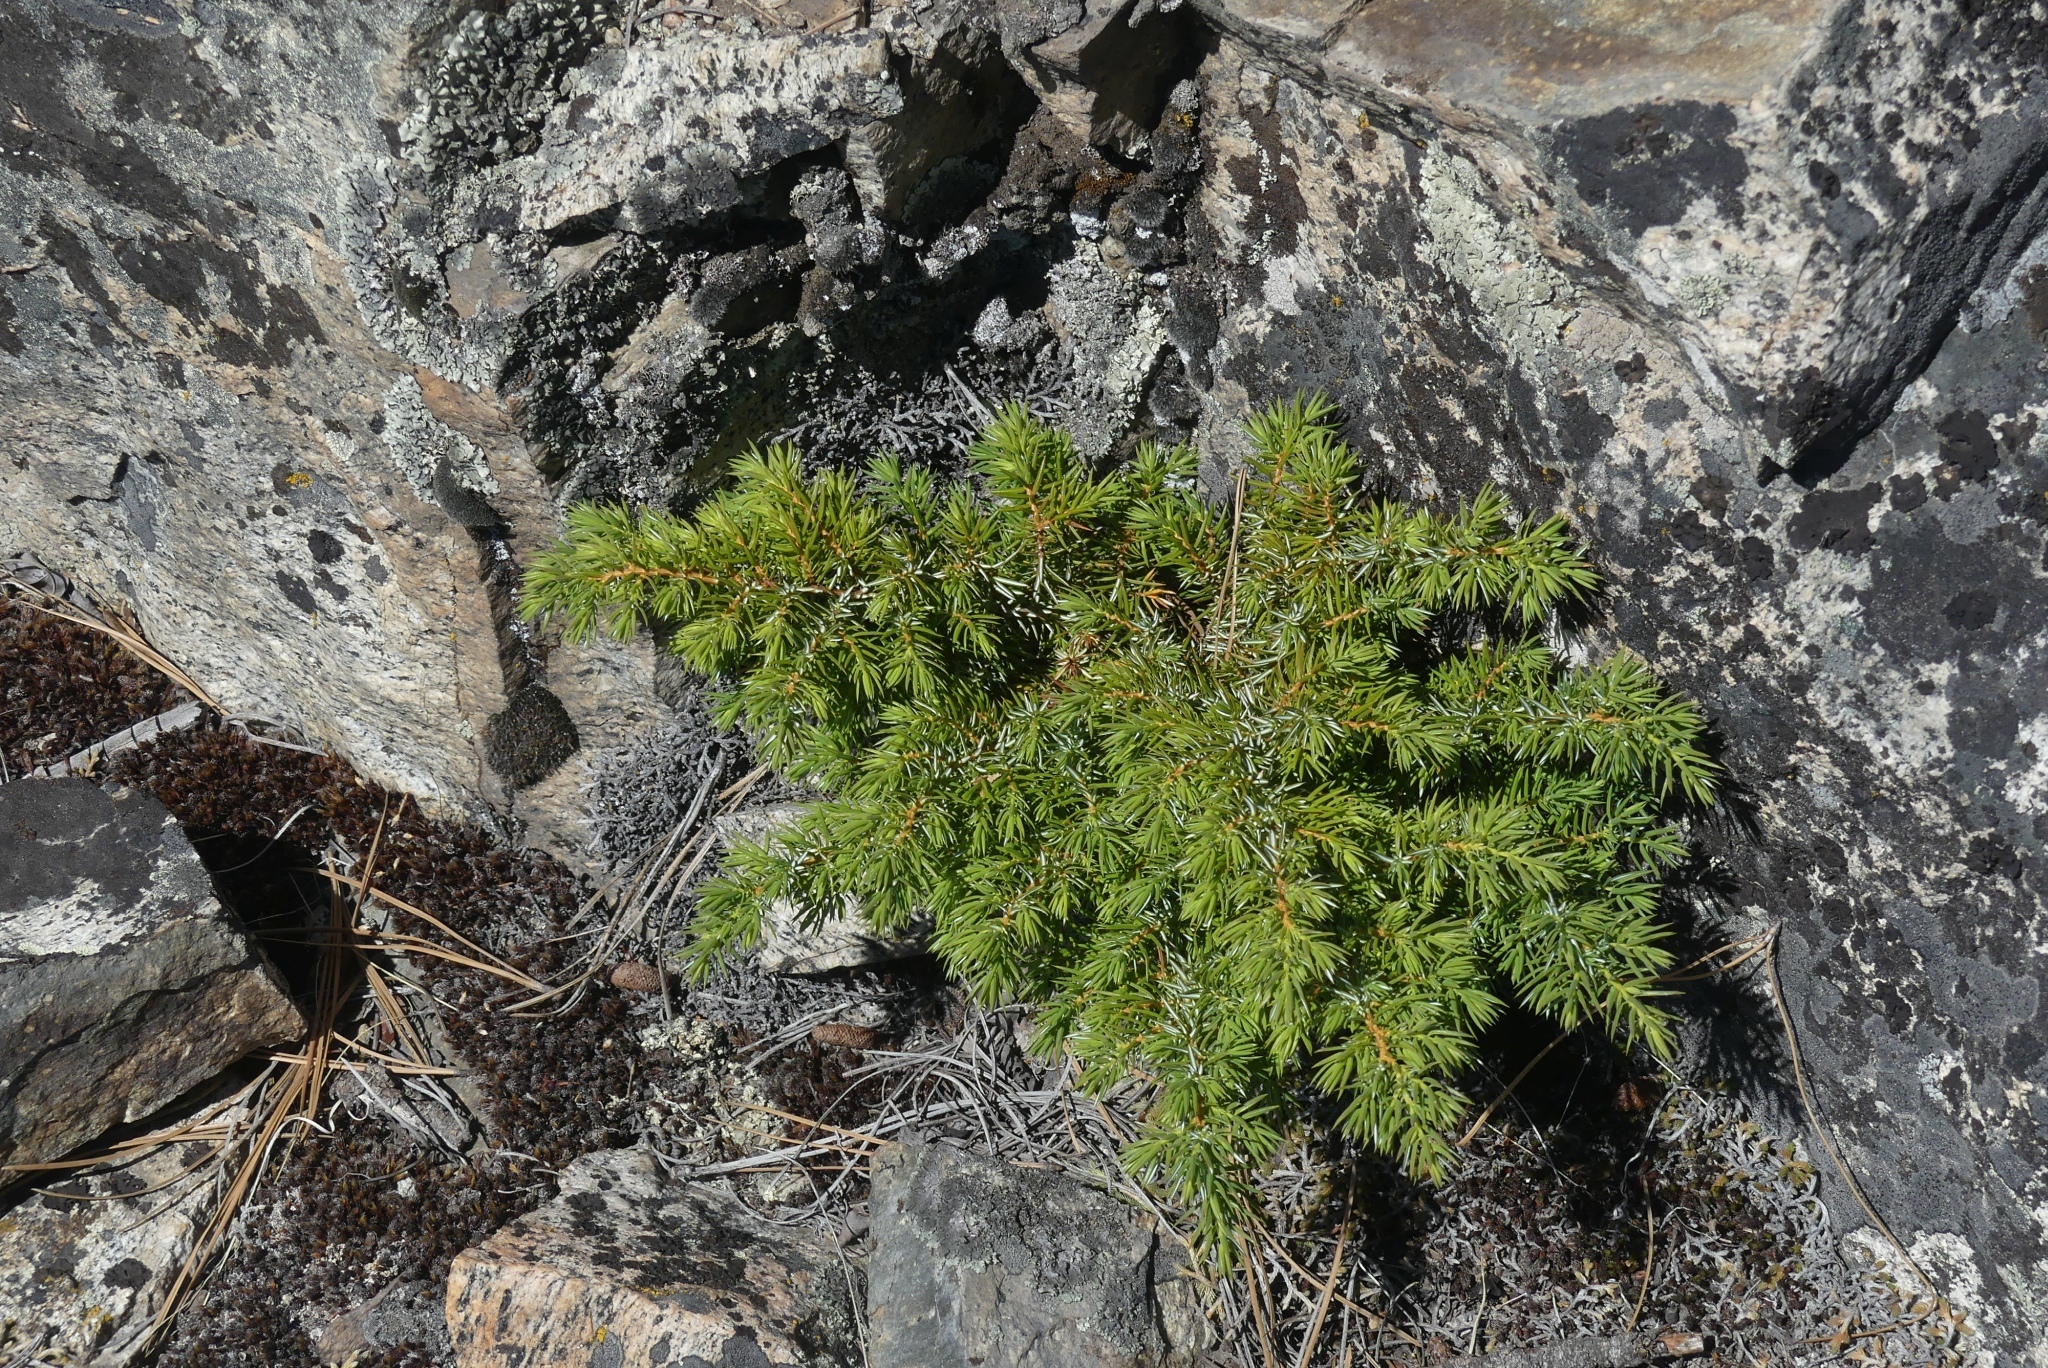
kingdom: Plantae
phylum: Tracheophyta
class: Pinopsida
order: Pinales
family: Cupressaceae
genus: Juniperus
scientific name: Juniperus communis
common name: Common juniper
